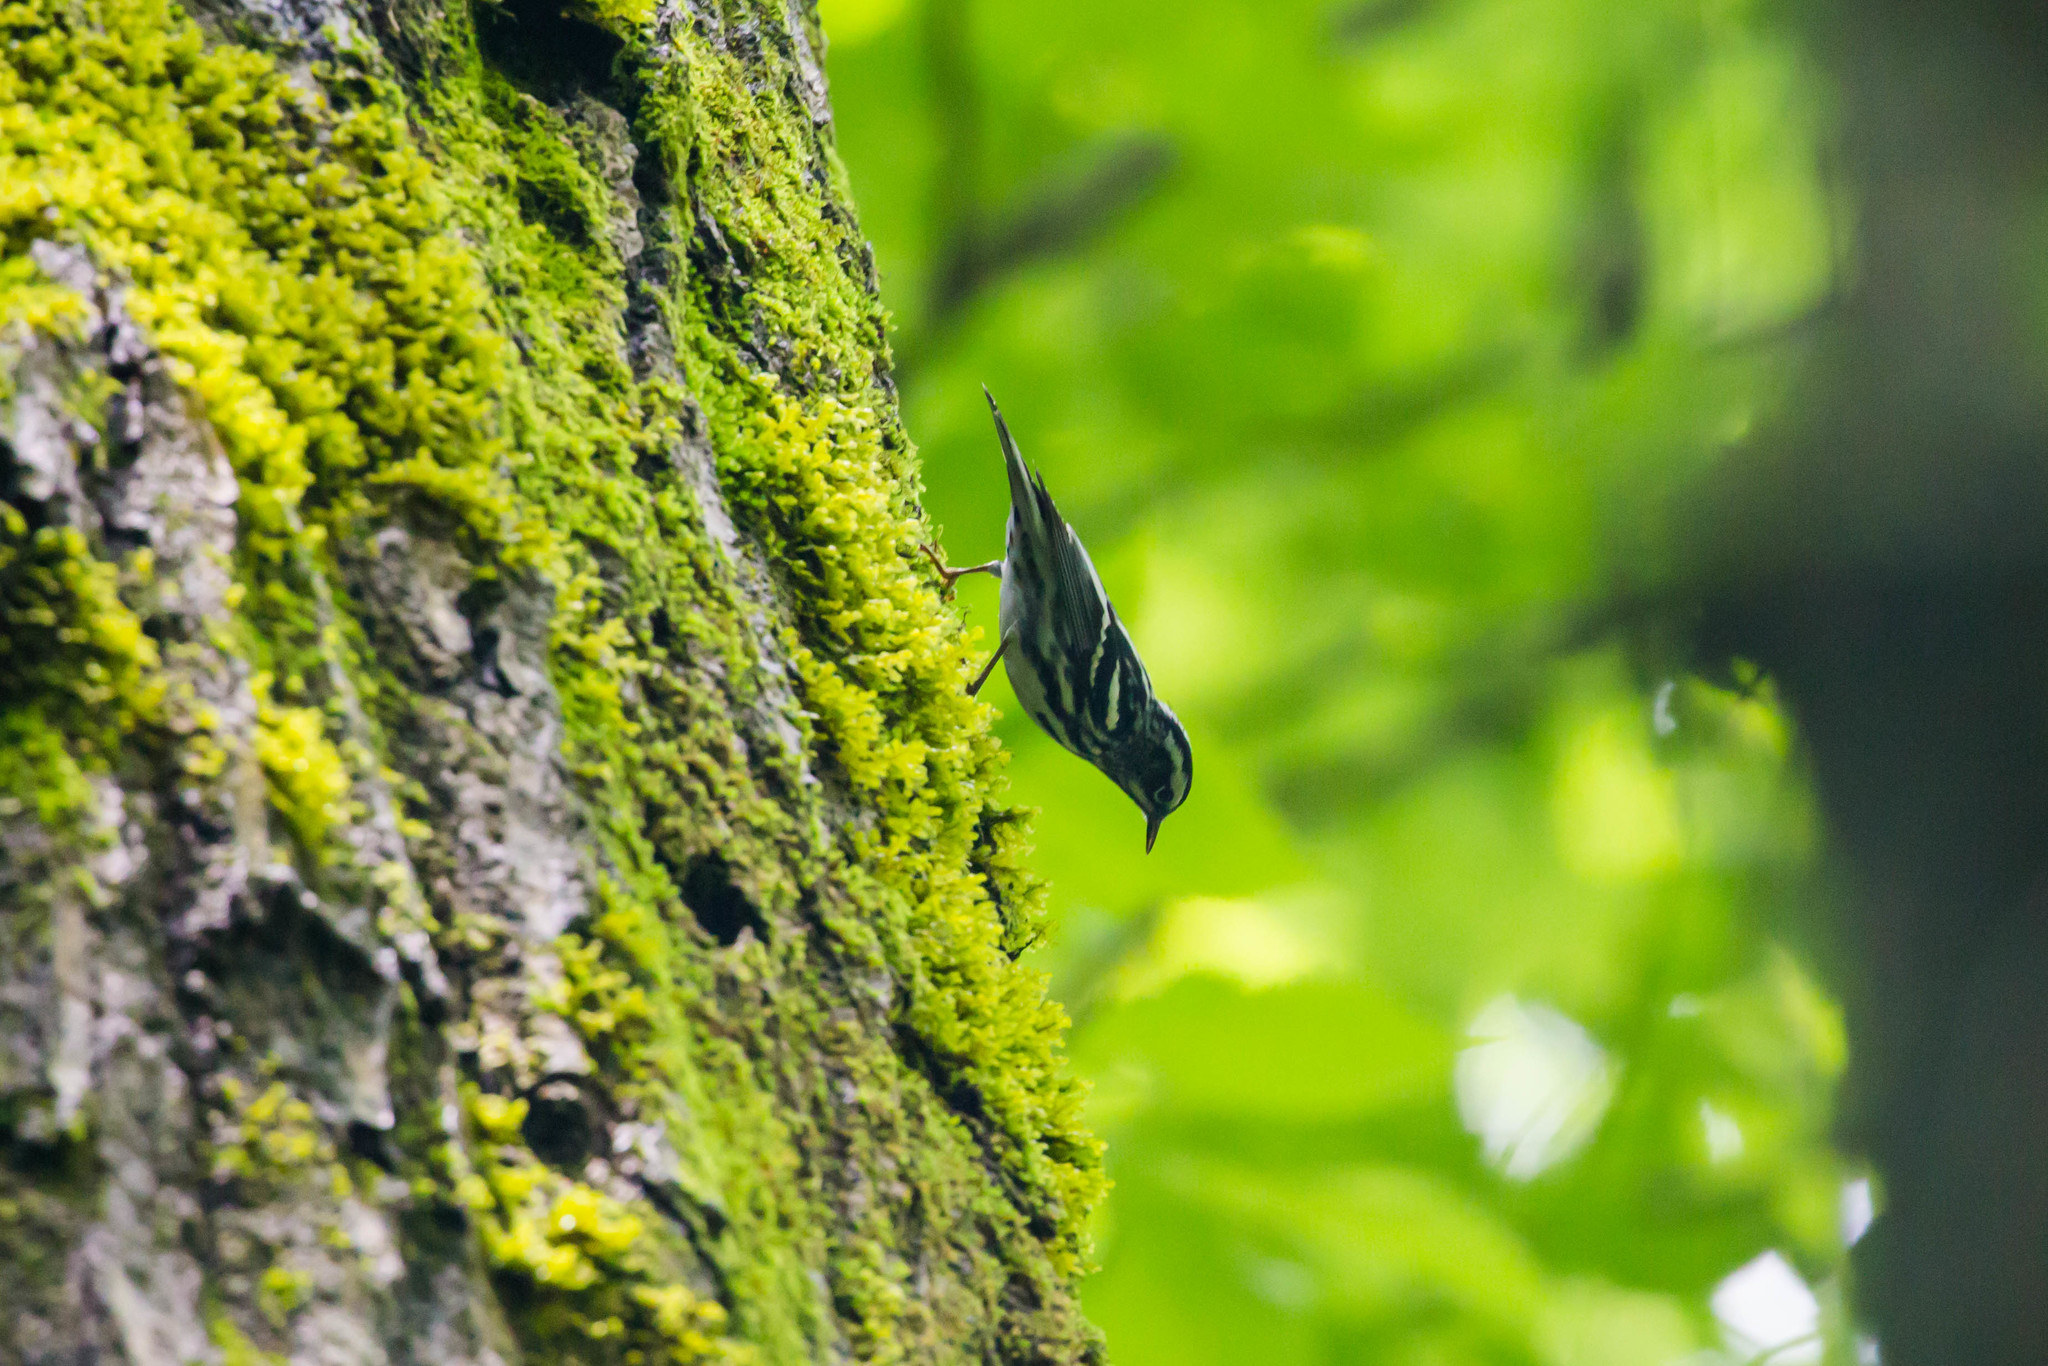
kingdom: Animalia
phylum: Chordata
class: Aves
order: Passeriformes
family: Parulidae
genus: Mniotilta
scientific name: Mniotilta varia
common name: Black-and-white warbler
